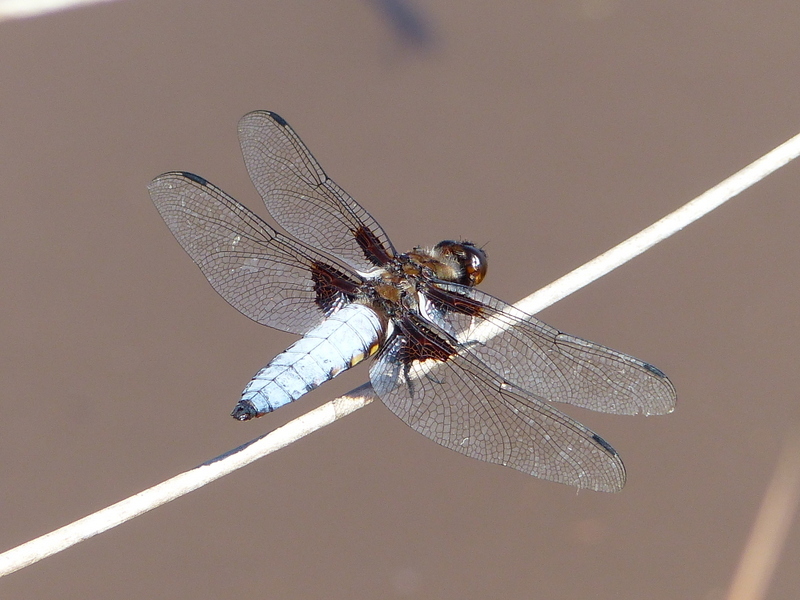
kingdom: Animalia
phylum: Arthropoda
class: Insecta
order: Odonata
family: Libellulidae
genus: Libellula
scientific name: Libellula depressa
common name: Broad-bodied chaser
